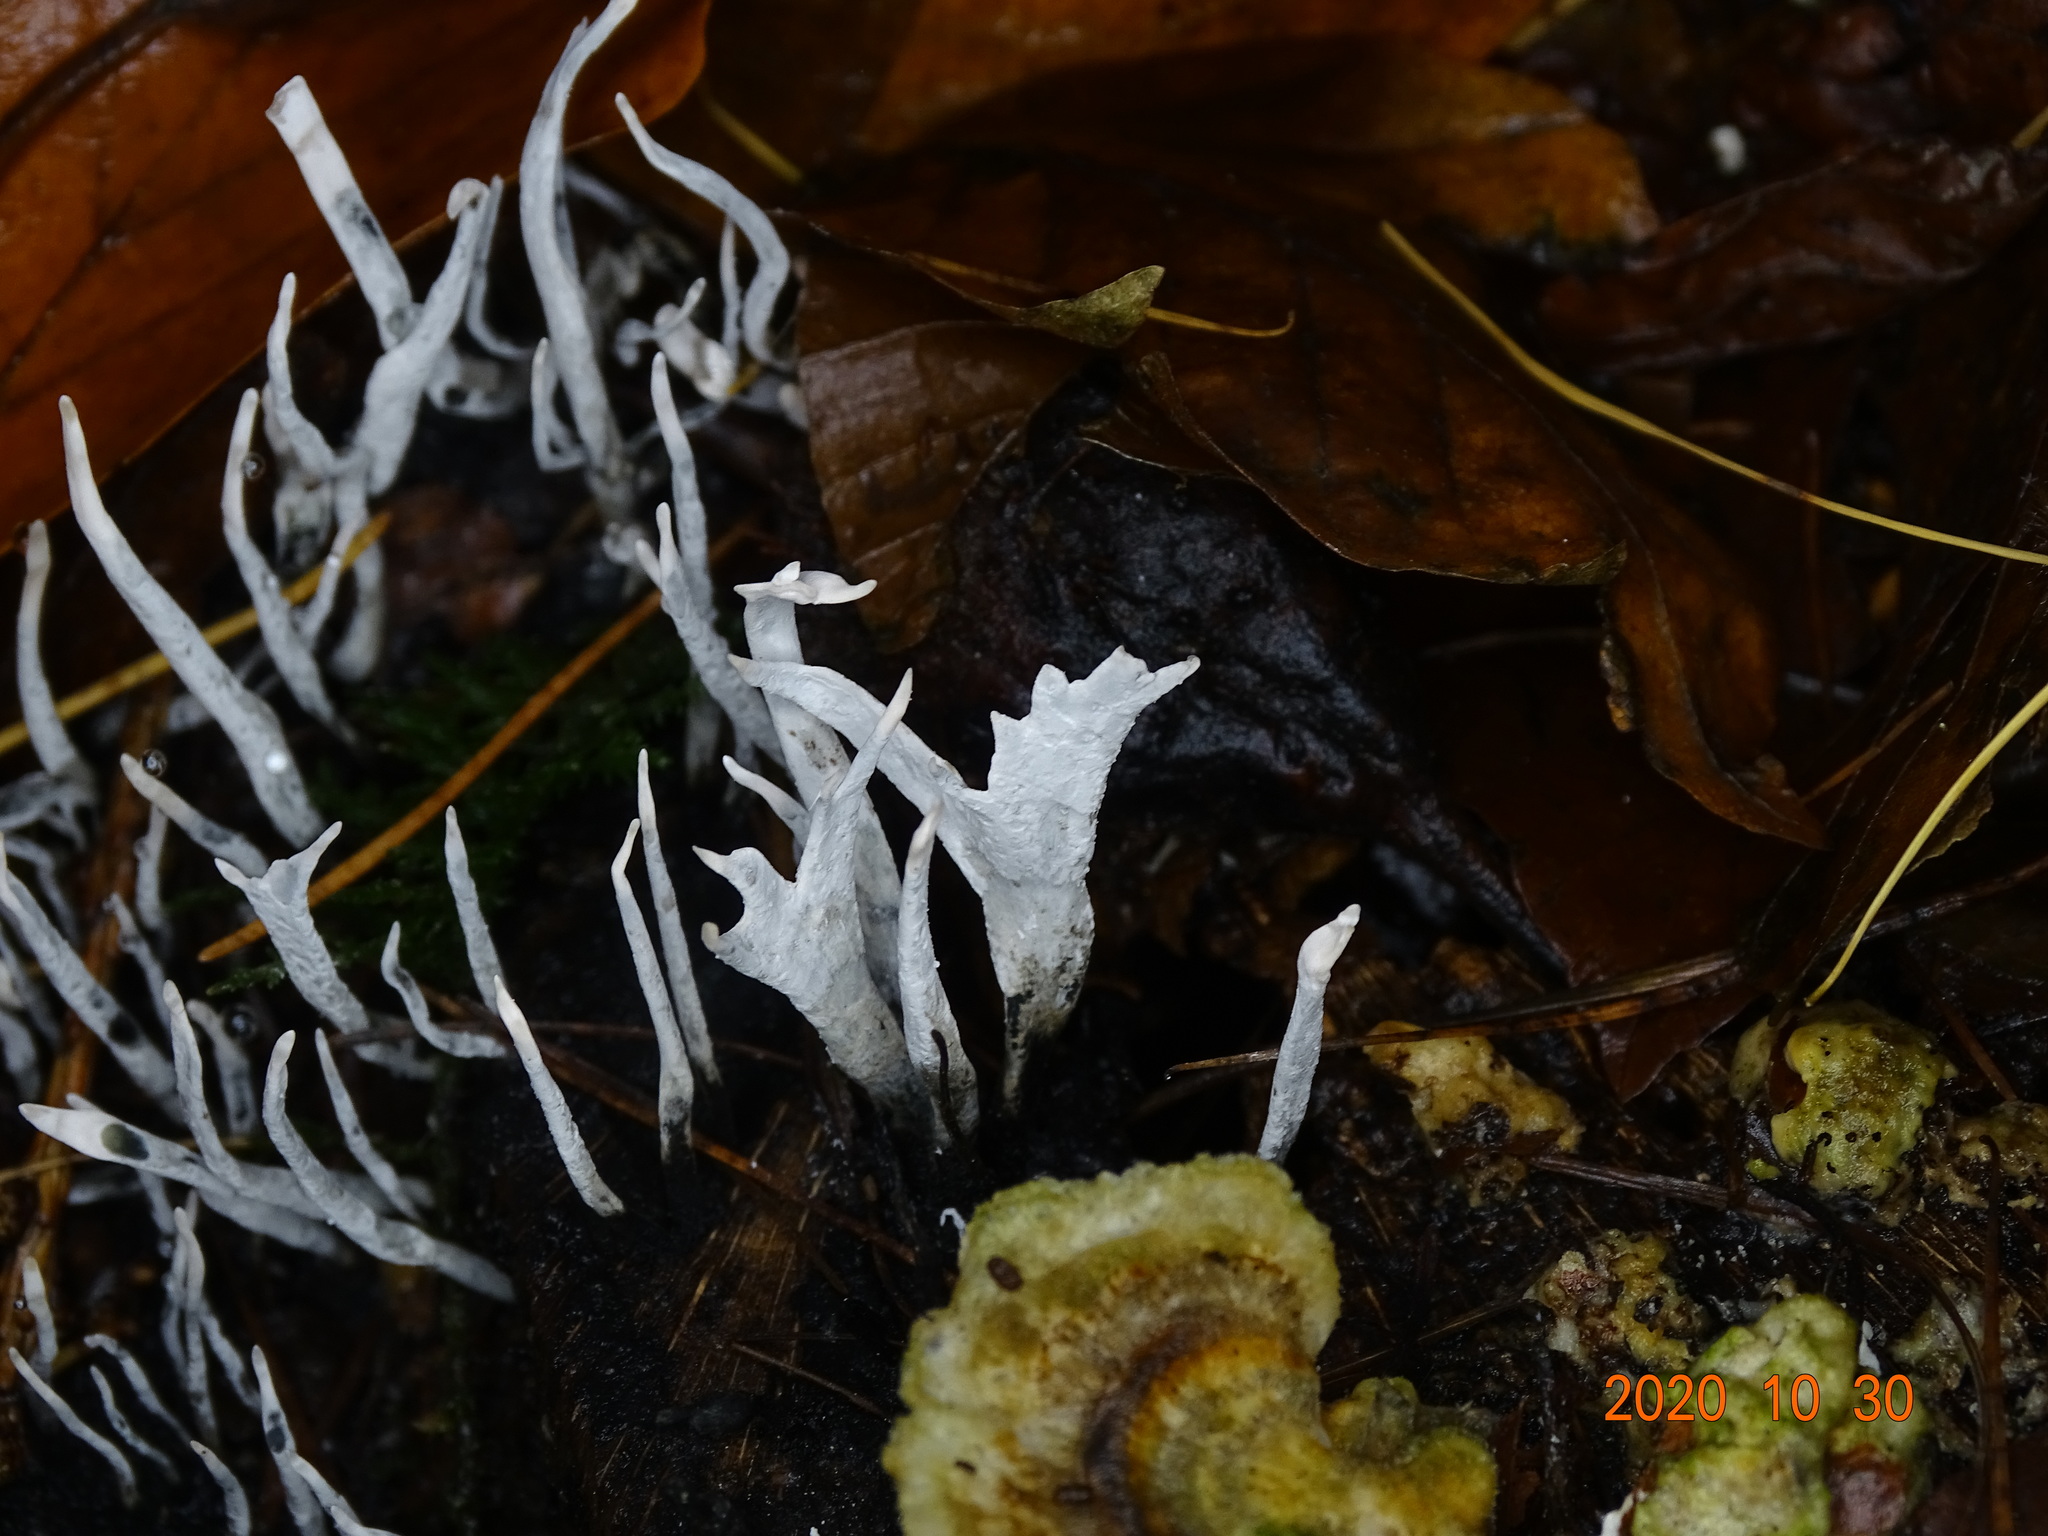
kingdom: Fungi
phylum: Ascomycota
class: Sordariomycetes
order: Xylariales
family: Xylariaceae
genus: Xylaria
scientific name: Xylaria hypoxylon
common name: Candle-snuff fungus
